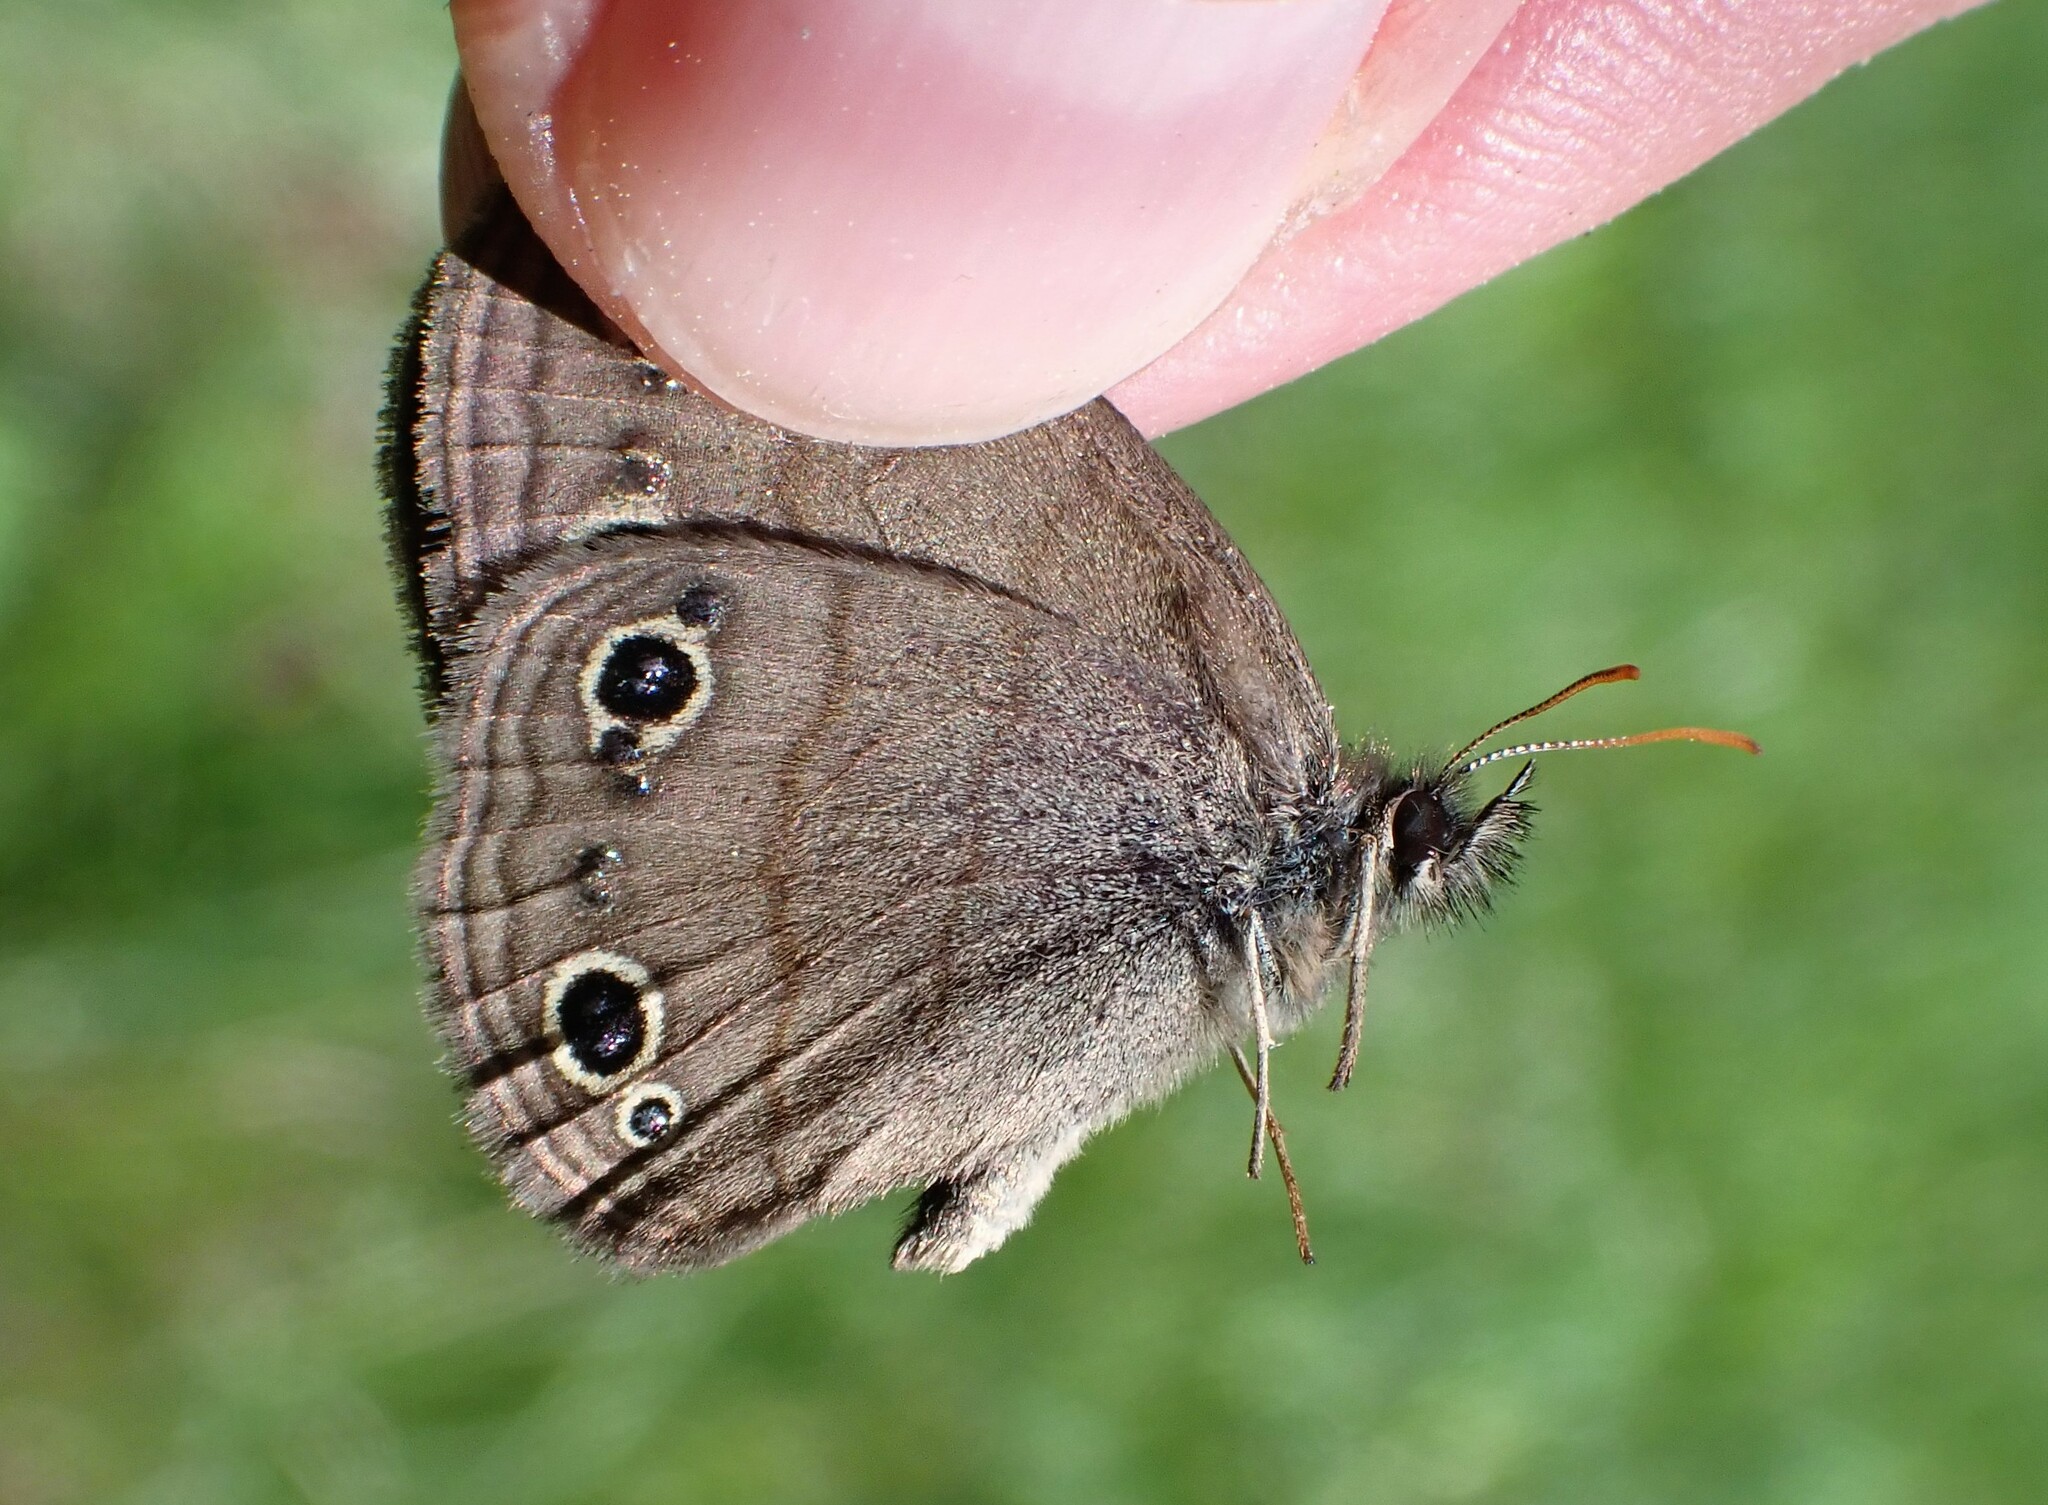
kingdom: Animalia
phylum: Arthropoda
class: Insecta
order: Lepidoptera
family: Nymphalidae
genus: Euptychia
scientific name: Euptychia cymela
